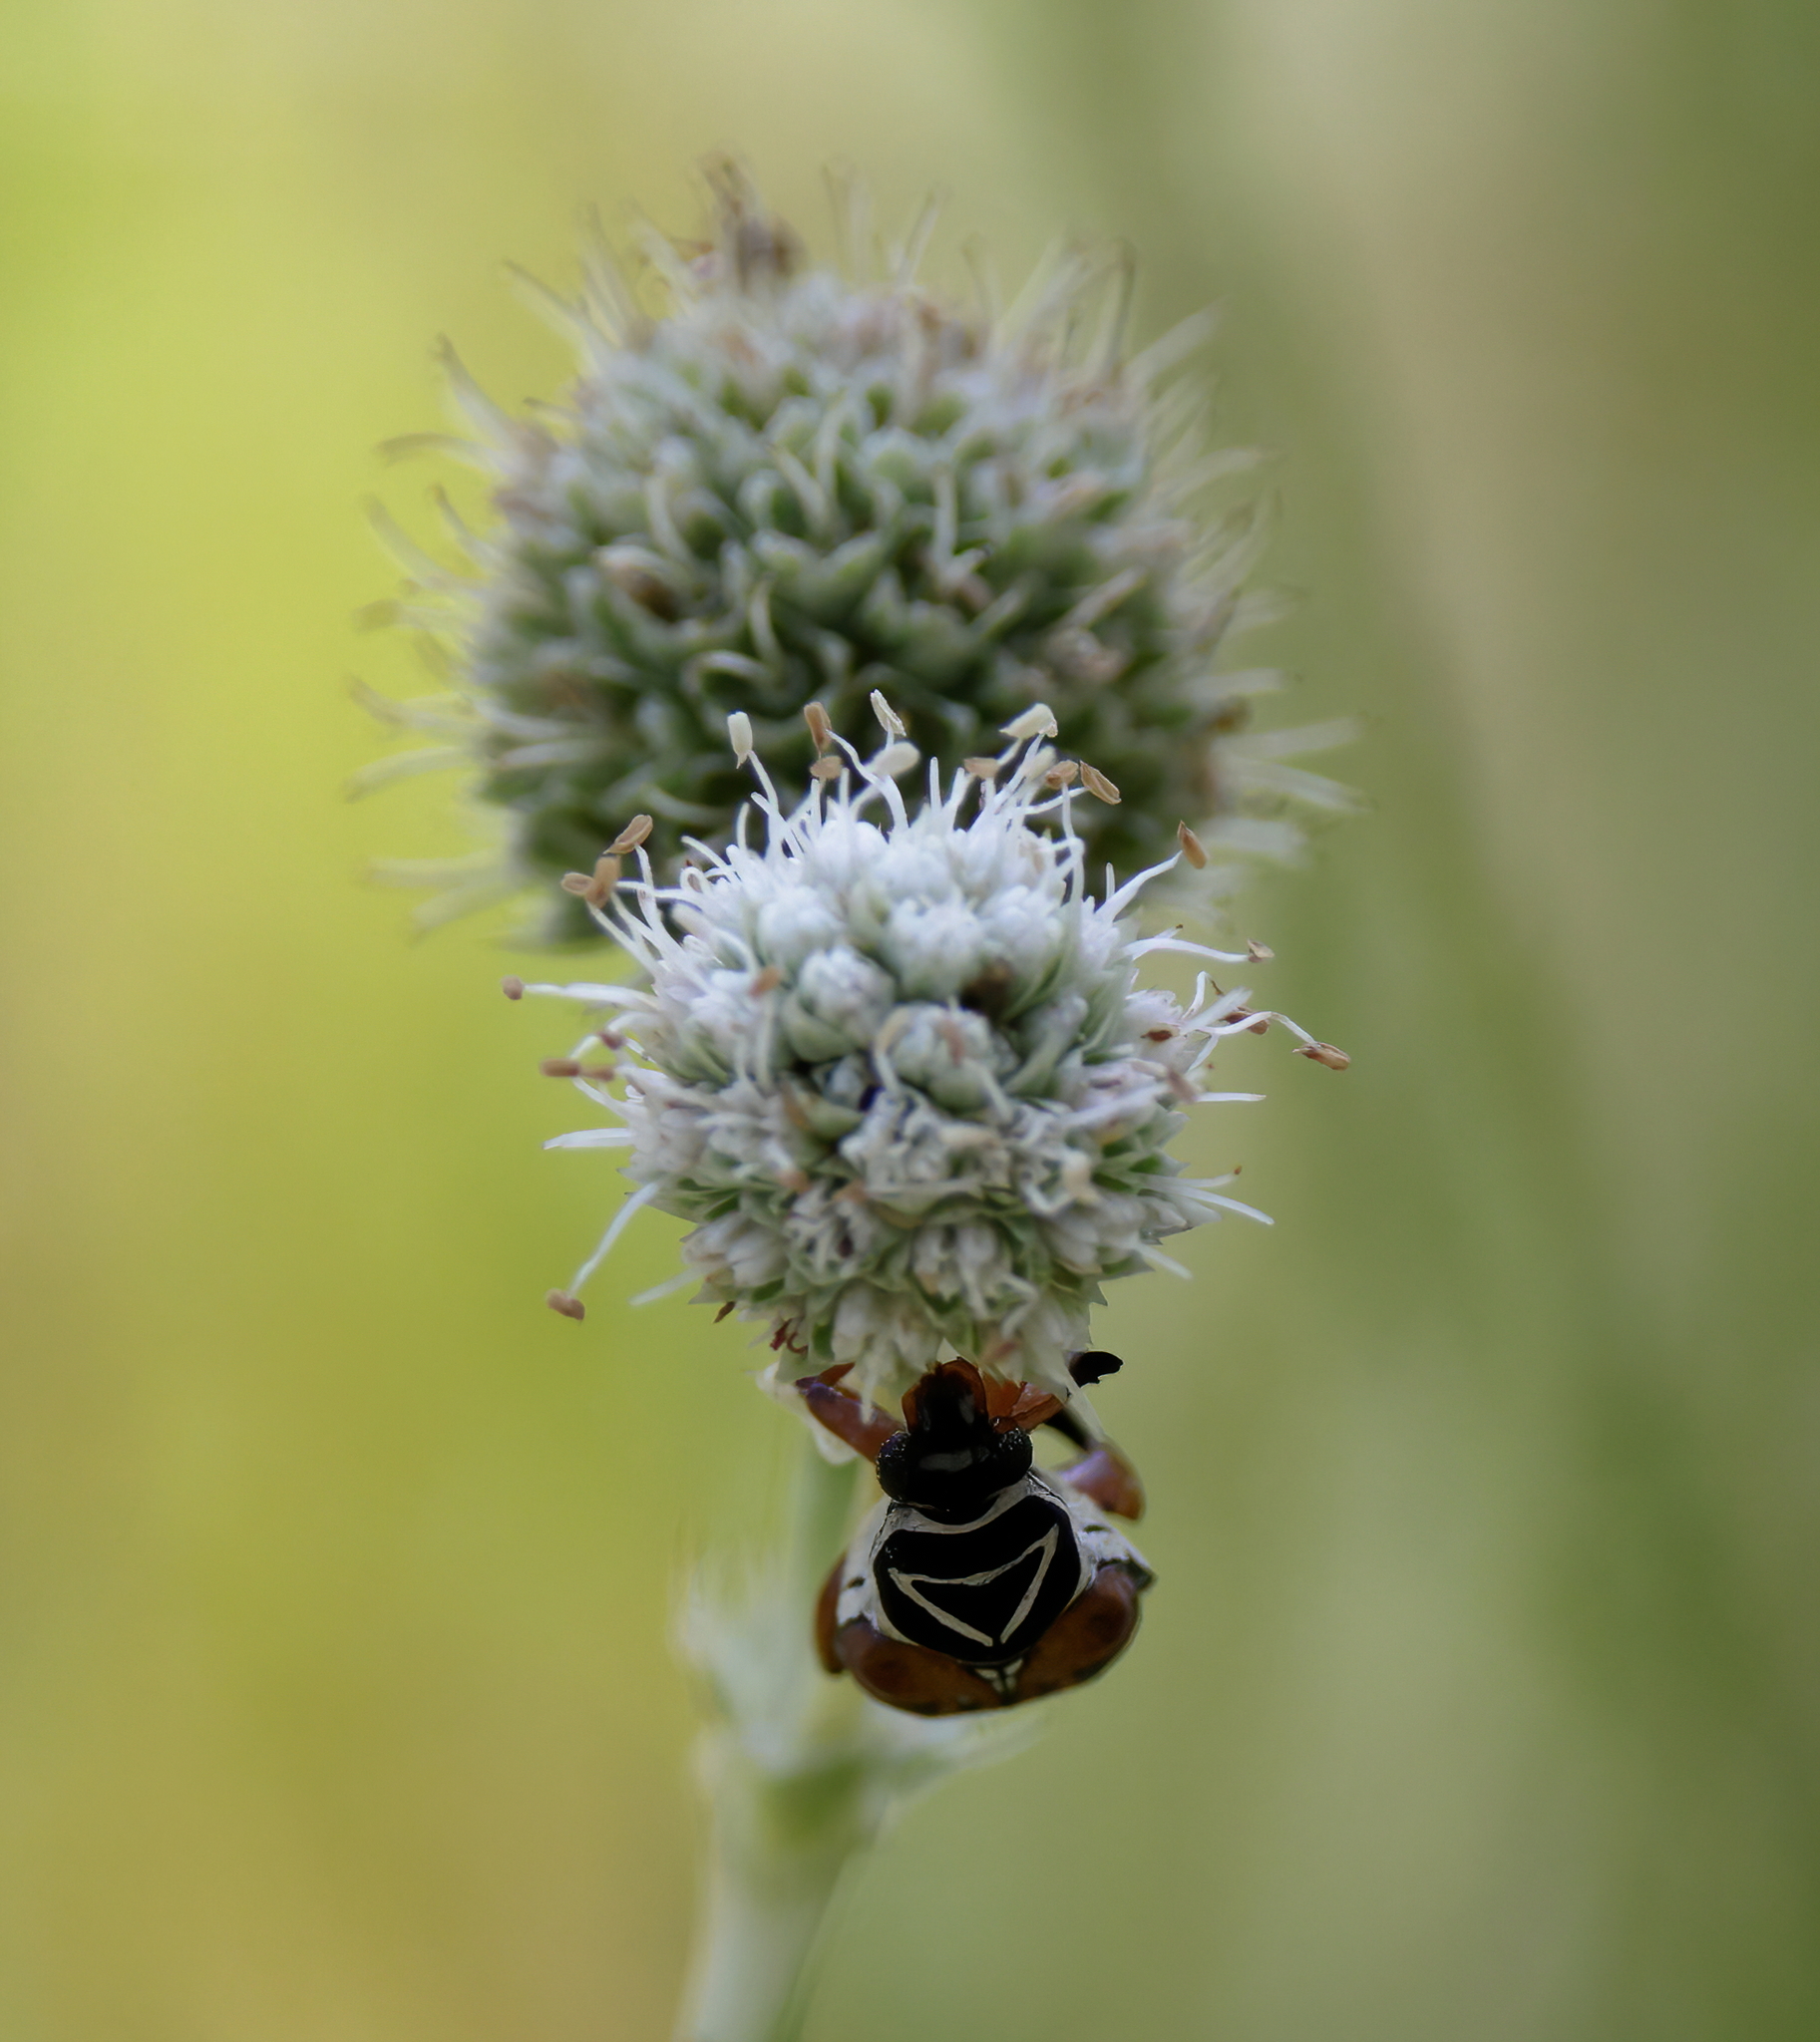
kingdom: Animalia
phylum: Arthropoda
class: Insecta
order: Coleoptera
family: Scarabaeidae
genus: Trigonopeltastes
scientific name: Trigonopeltastes delta
